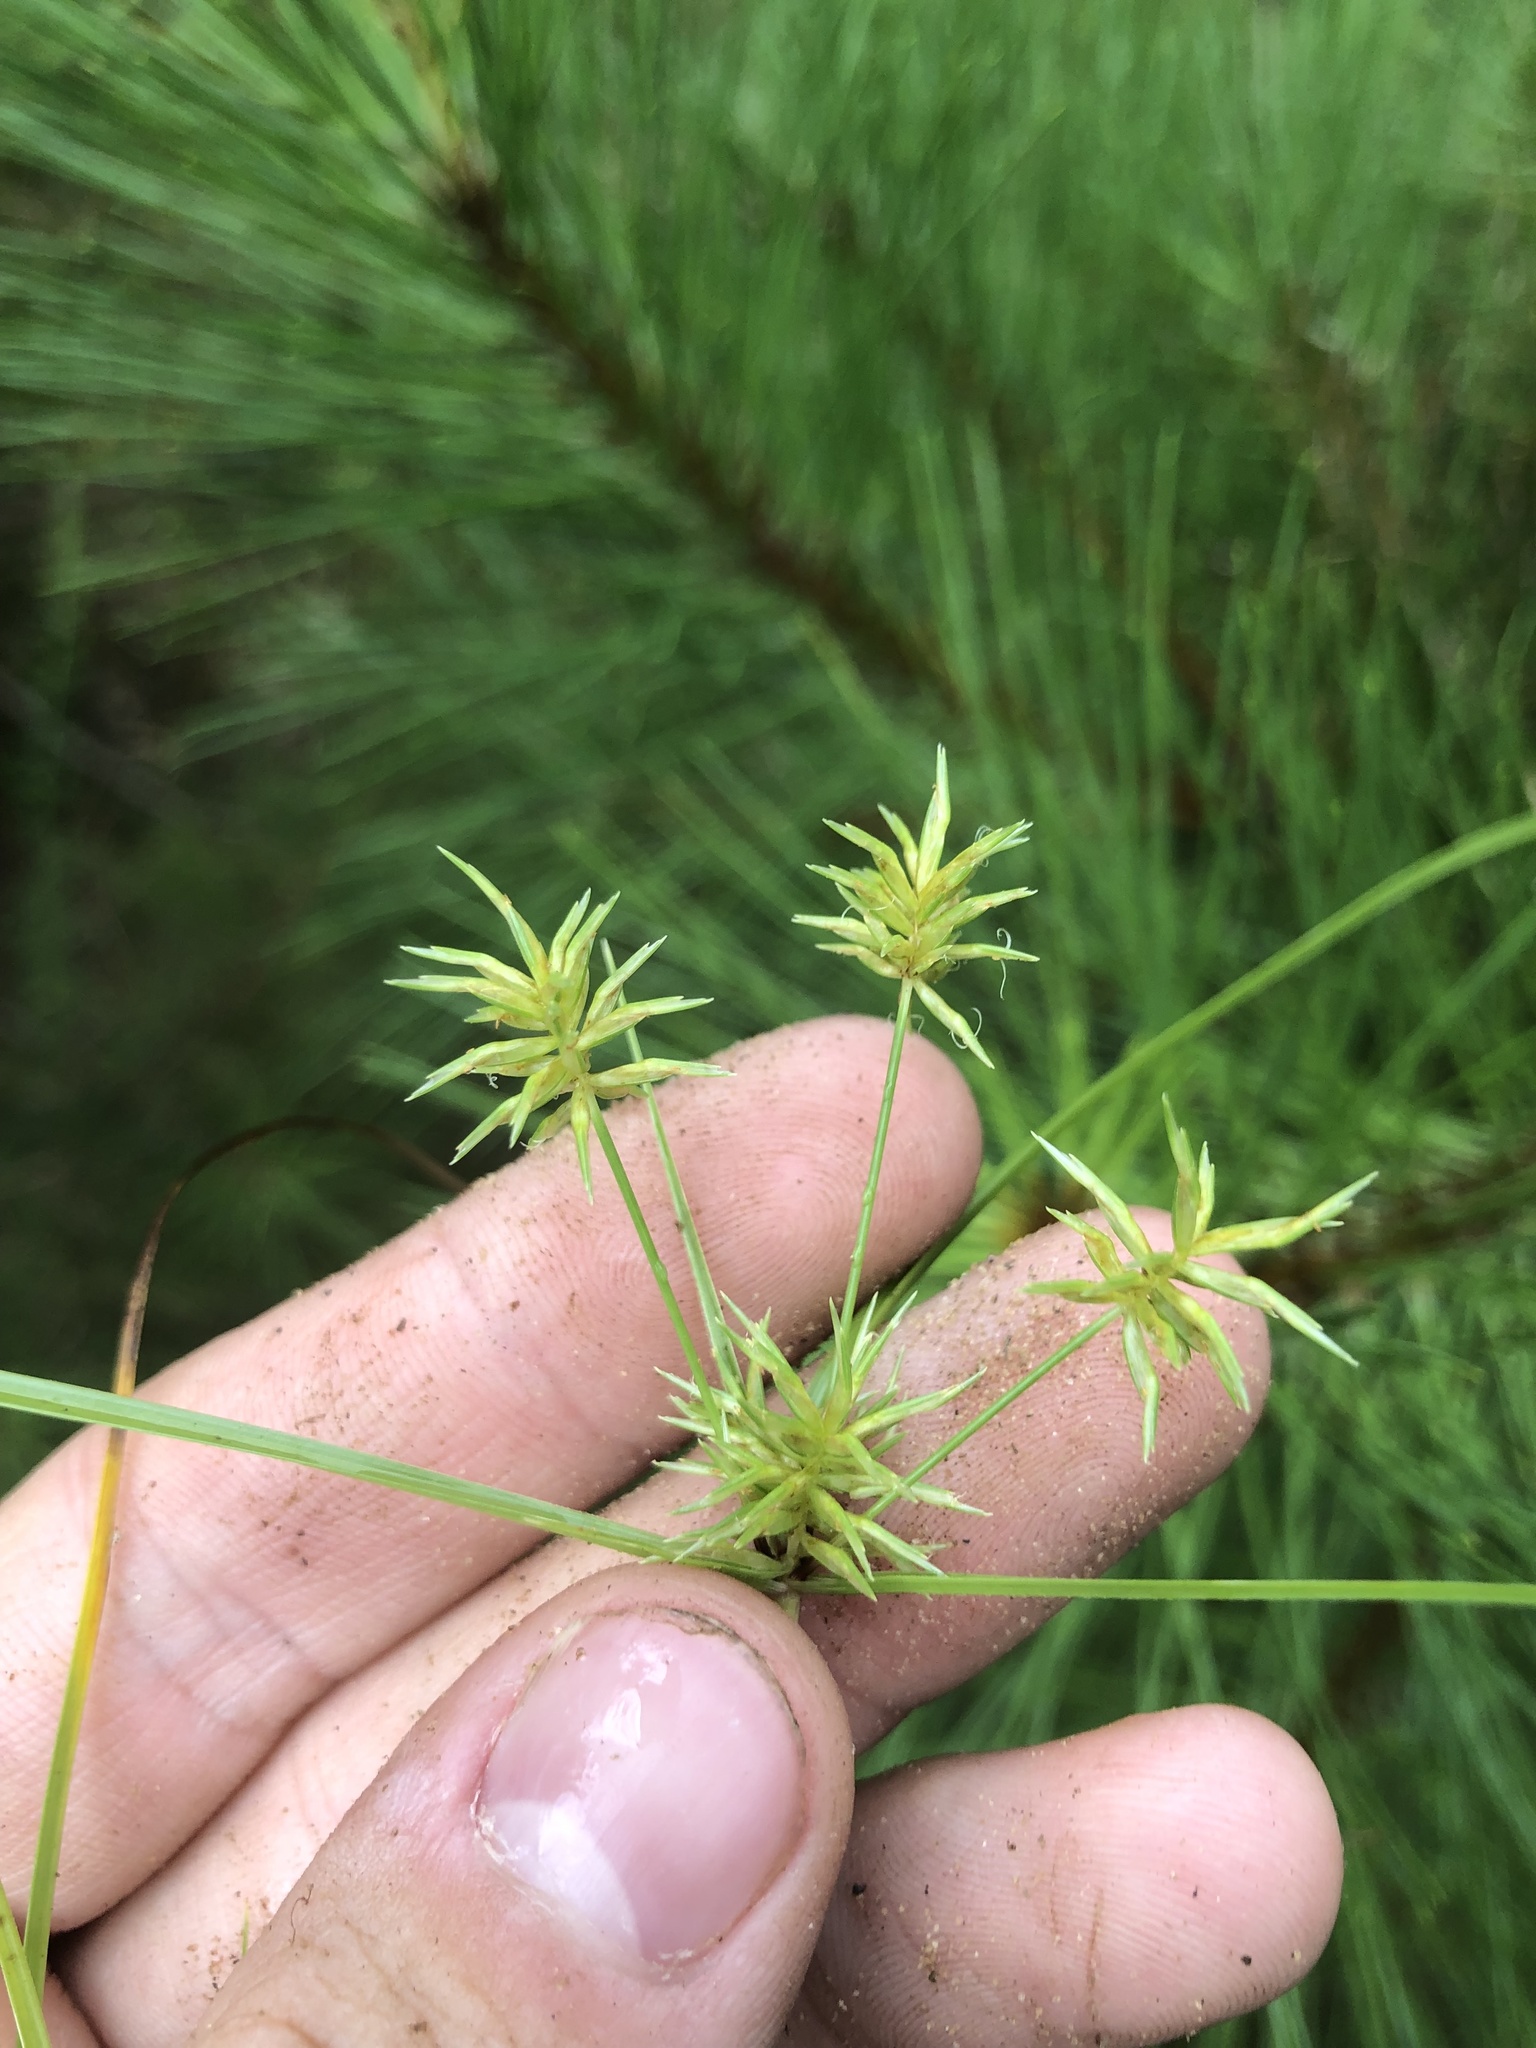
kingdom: Plantae
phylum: Tracheophyta
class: Liliopsida
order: Poales
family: Cyperaceae
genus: Cyperus
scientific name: Cyperus retroflexus
